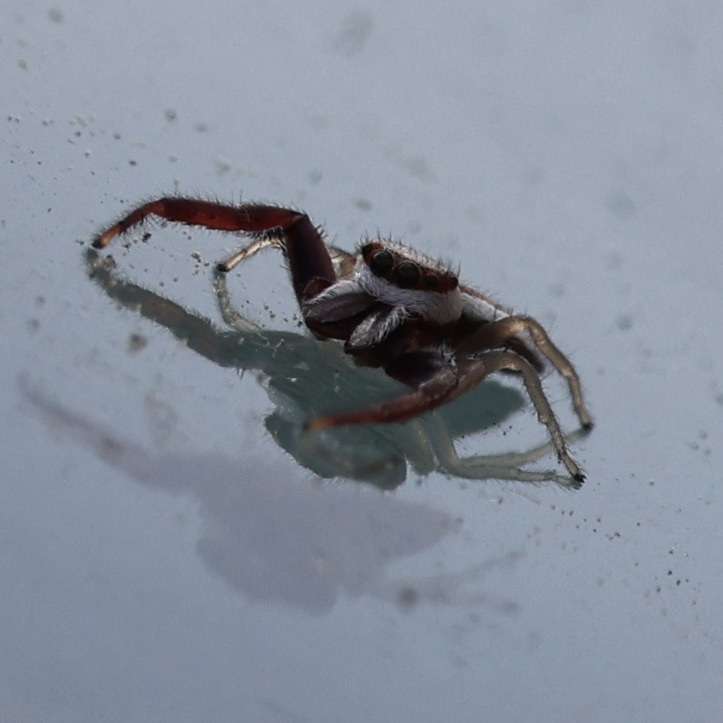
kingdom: Animalia
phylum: Arthropoda
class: Arachnida
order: Araneae
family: Salticidae
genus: Hentzia
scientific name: Hentzia palmarum
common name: Common hentz jumping spider
